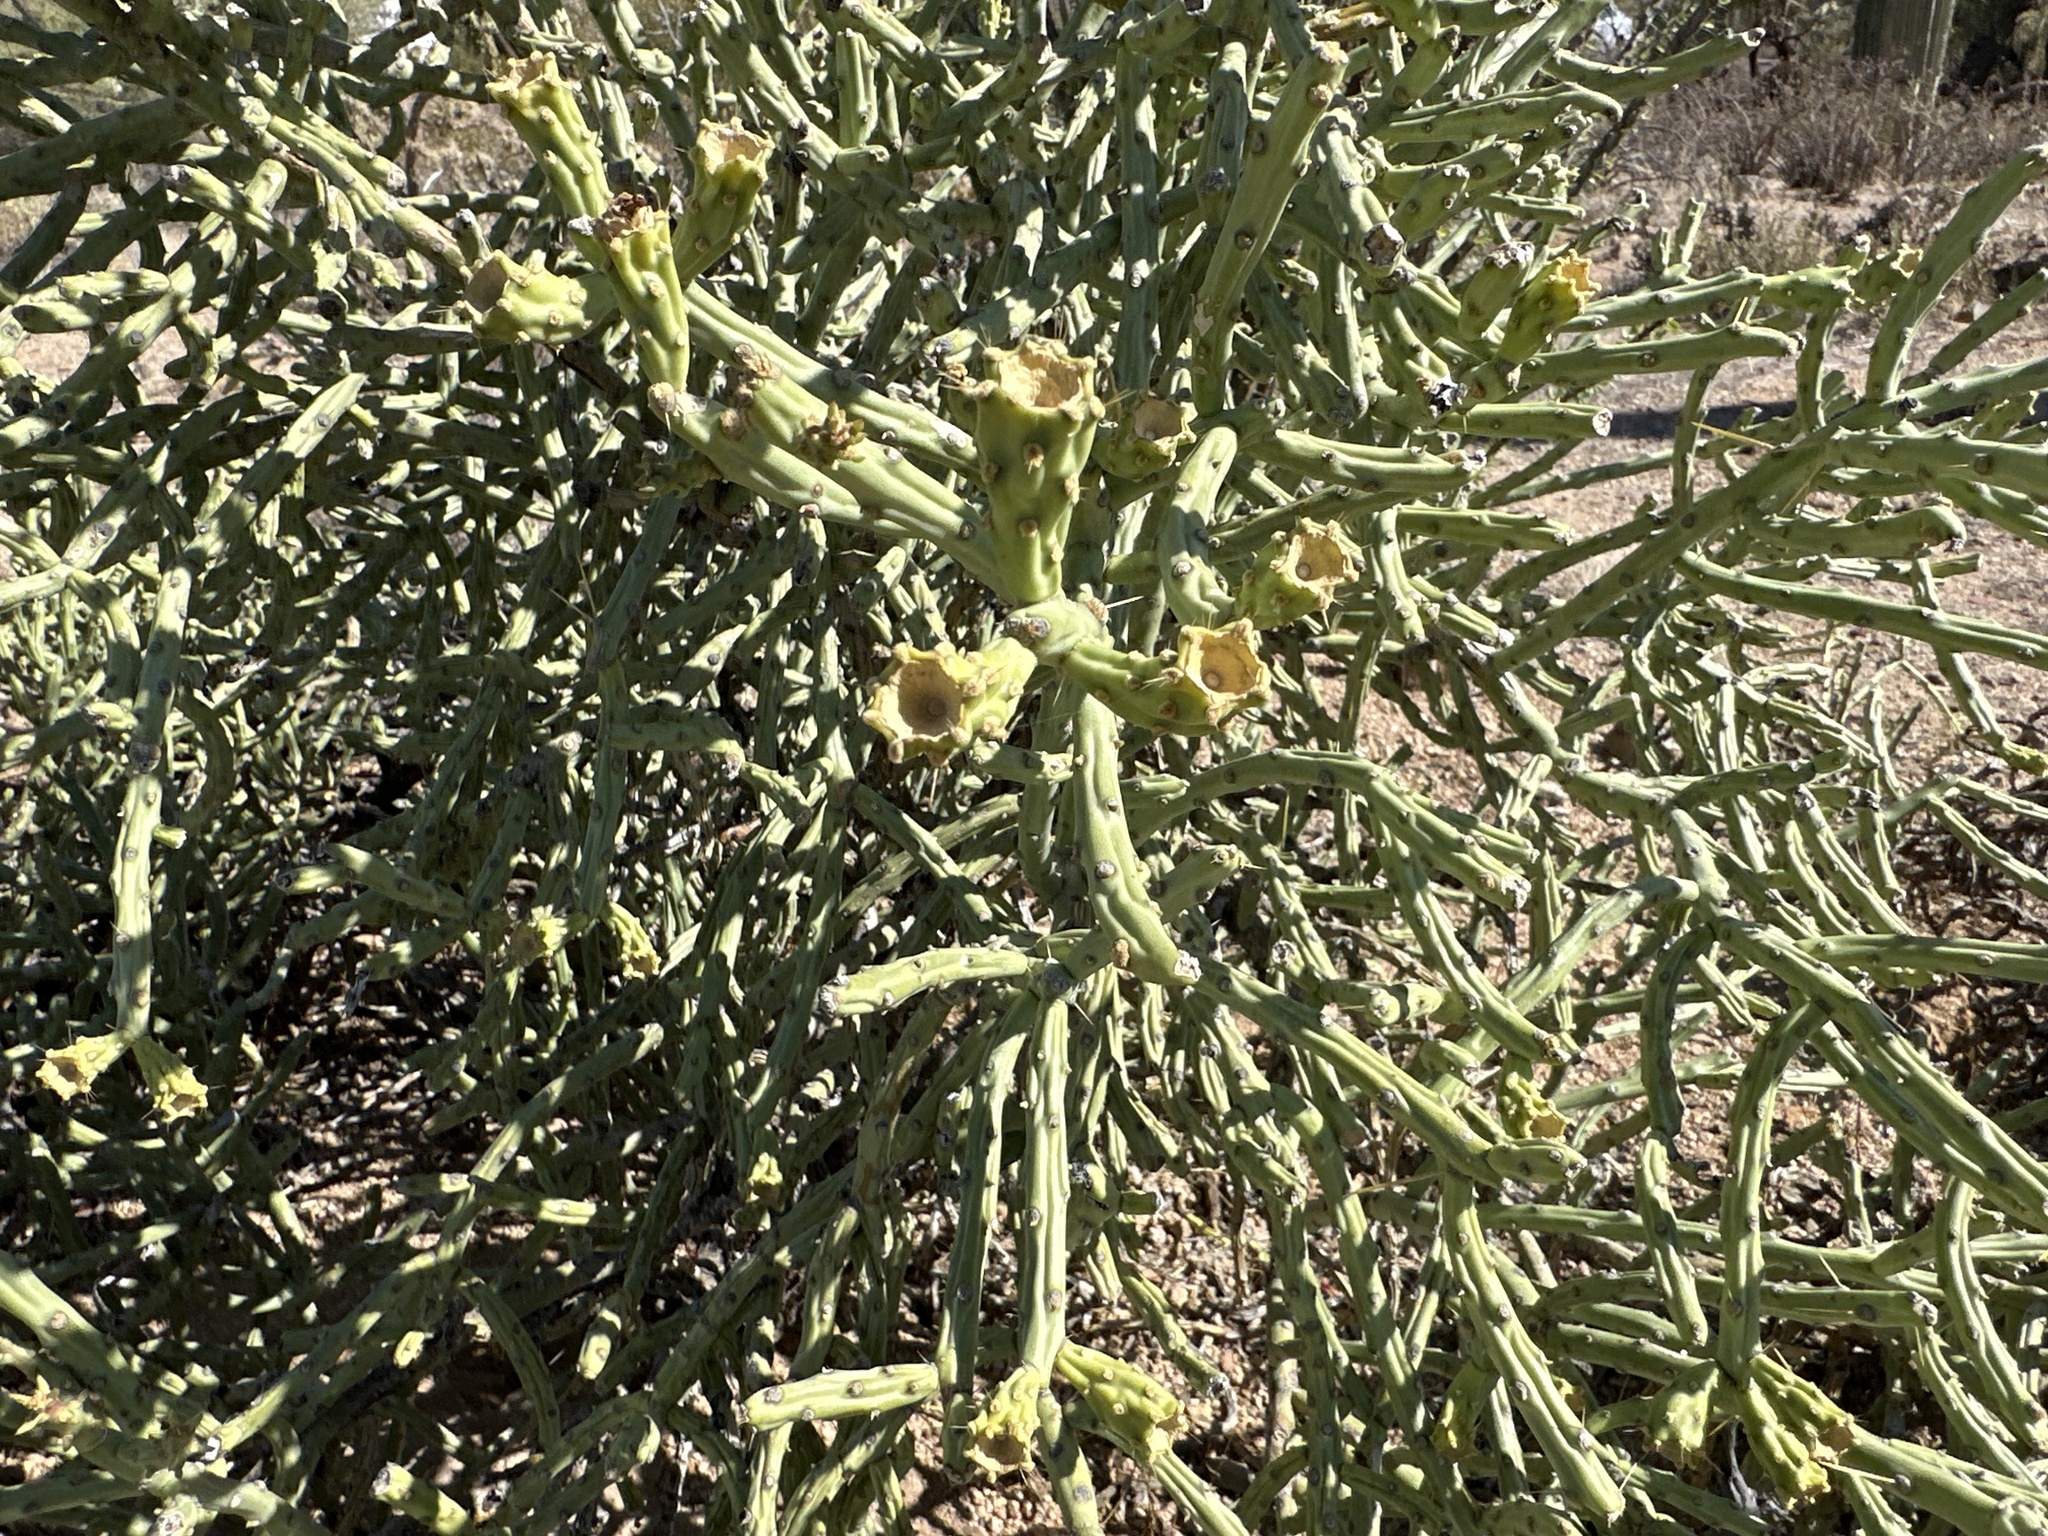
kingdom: Plantae
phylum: Tracheophyta
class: Magnoliopsida
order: Caryophyllales
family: Cactaceae
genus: Cylindropuntia
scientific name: Cylindropuntia arbuscula
